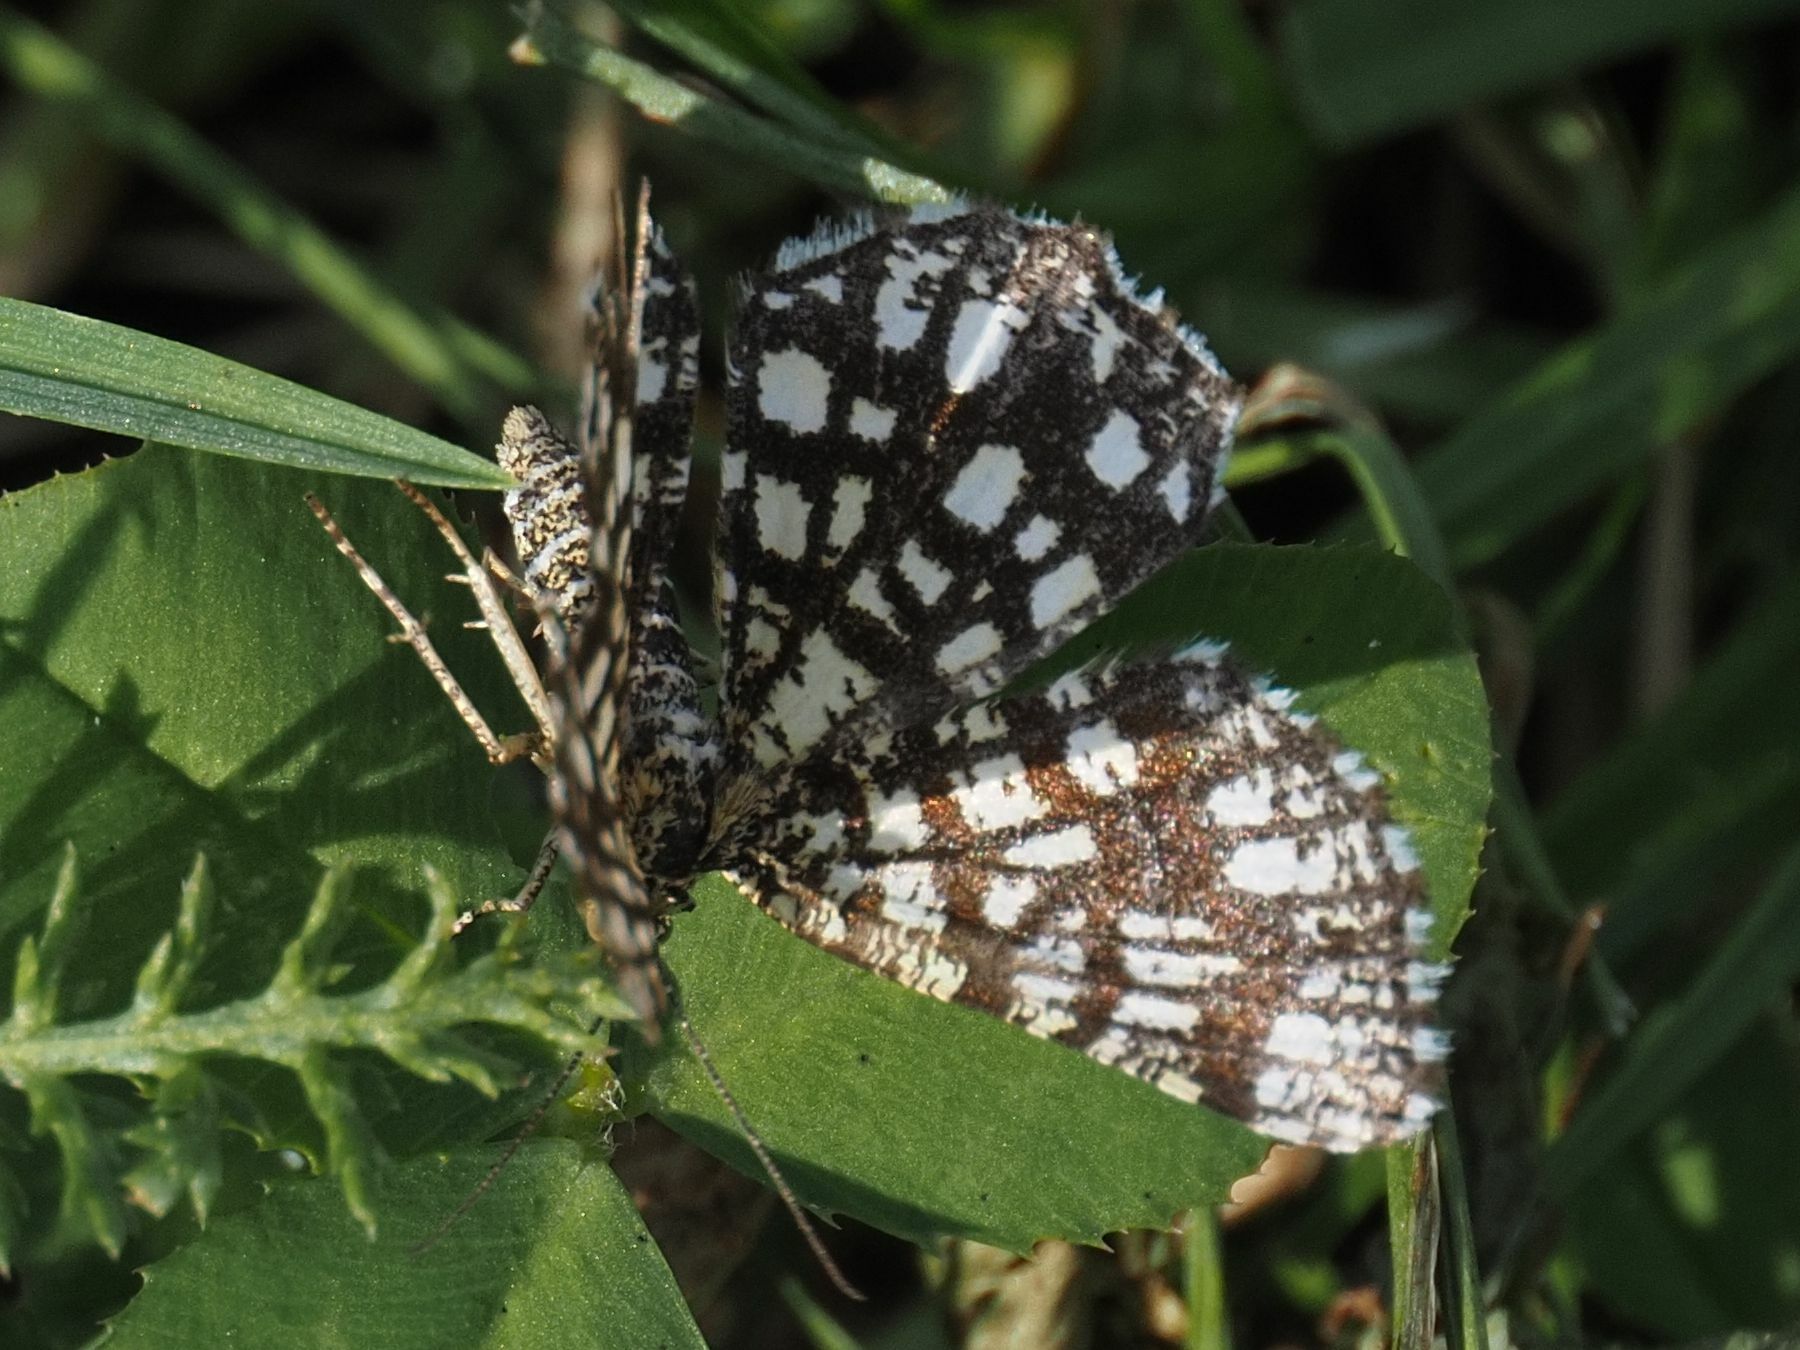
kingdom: Animalia
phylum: Arthropoda
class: Insecta
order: Lepidoptera
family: Geometridae
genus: Chiasmia
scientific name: Chiasmia clathrata
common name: Latticed heath
